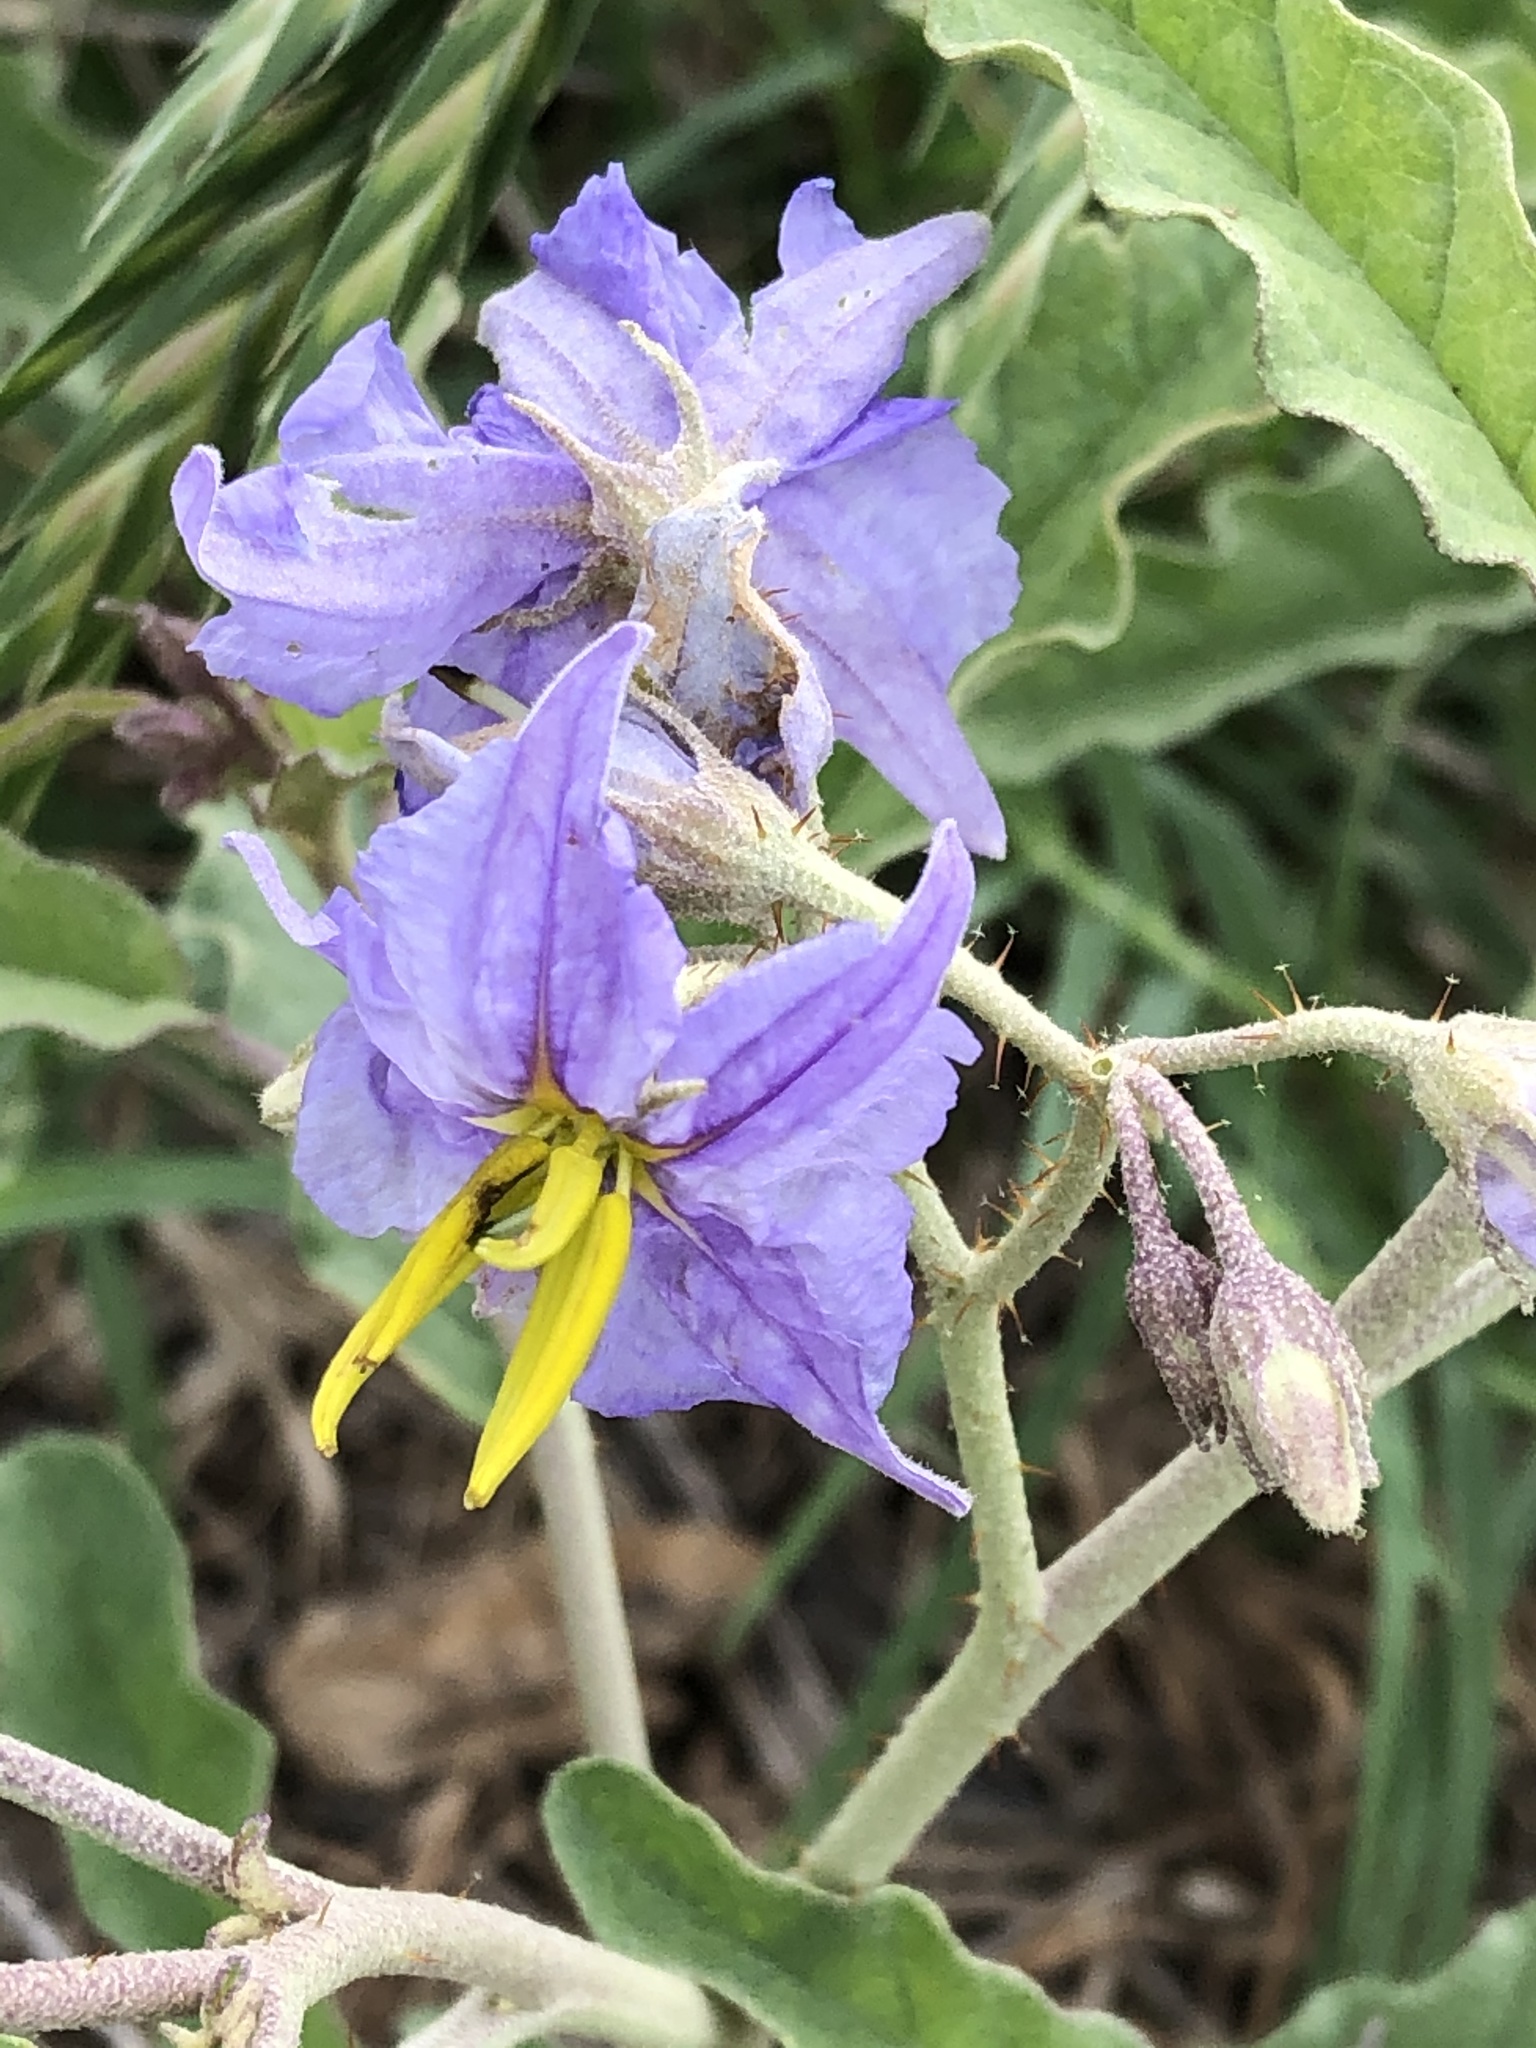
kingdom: Plantae
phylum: Tracheophyta
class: Magnoliopsida
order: Solanales
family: Solanaceae
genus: Solanum
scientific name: Solanum elaeagnifolium
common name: Silverleaf nightshade
